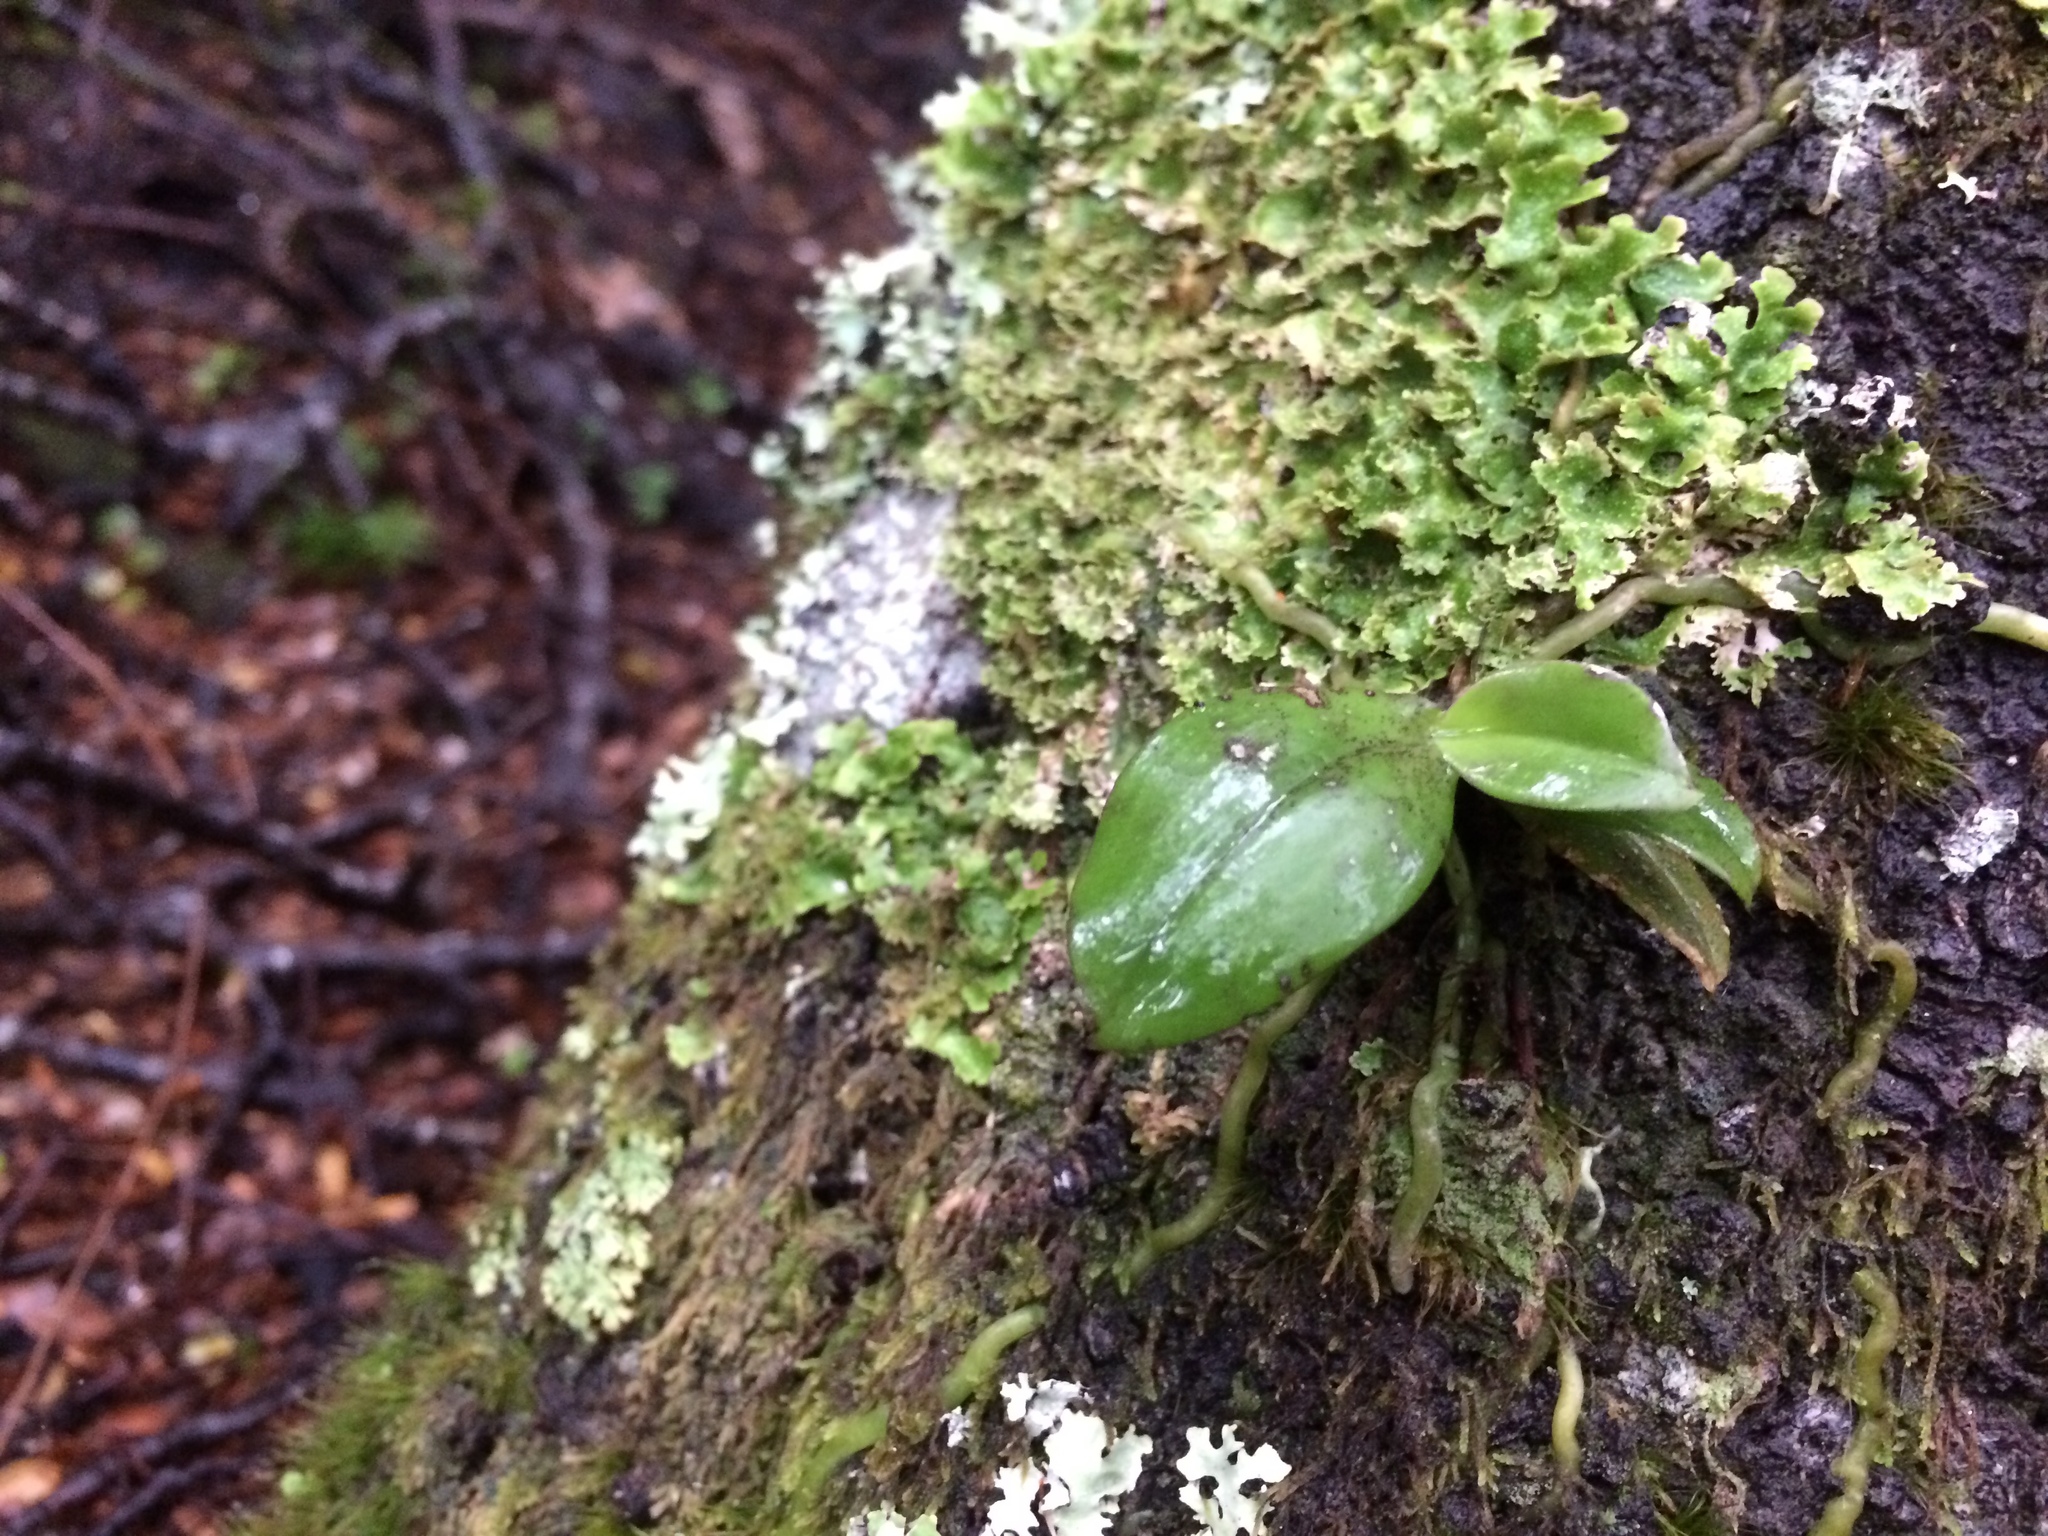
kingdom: Plantae
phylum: Tracheophyta
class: Liliopsida
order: Asparagales
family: Orchidaceae
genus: Drymoanthus
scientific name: Drymoanthus adversus
